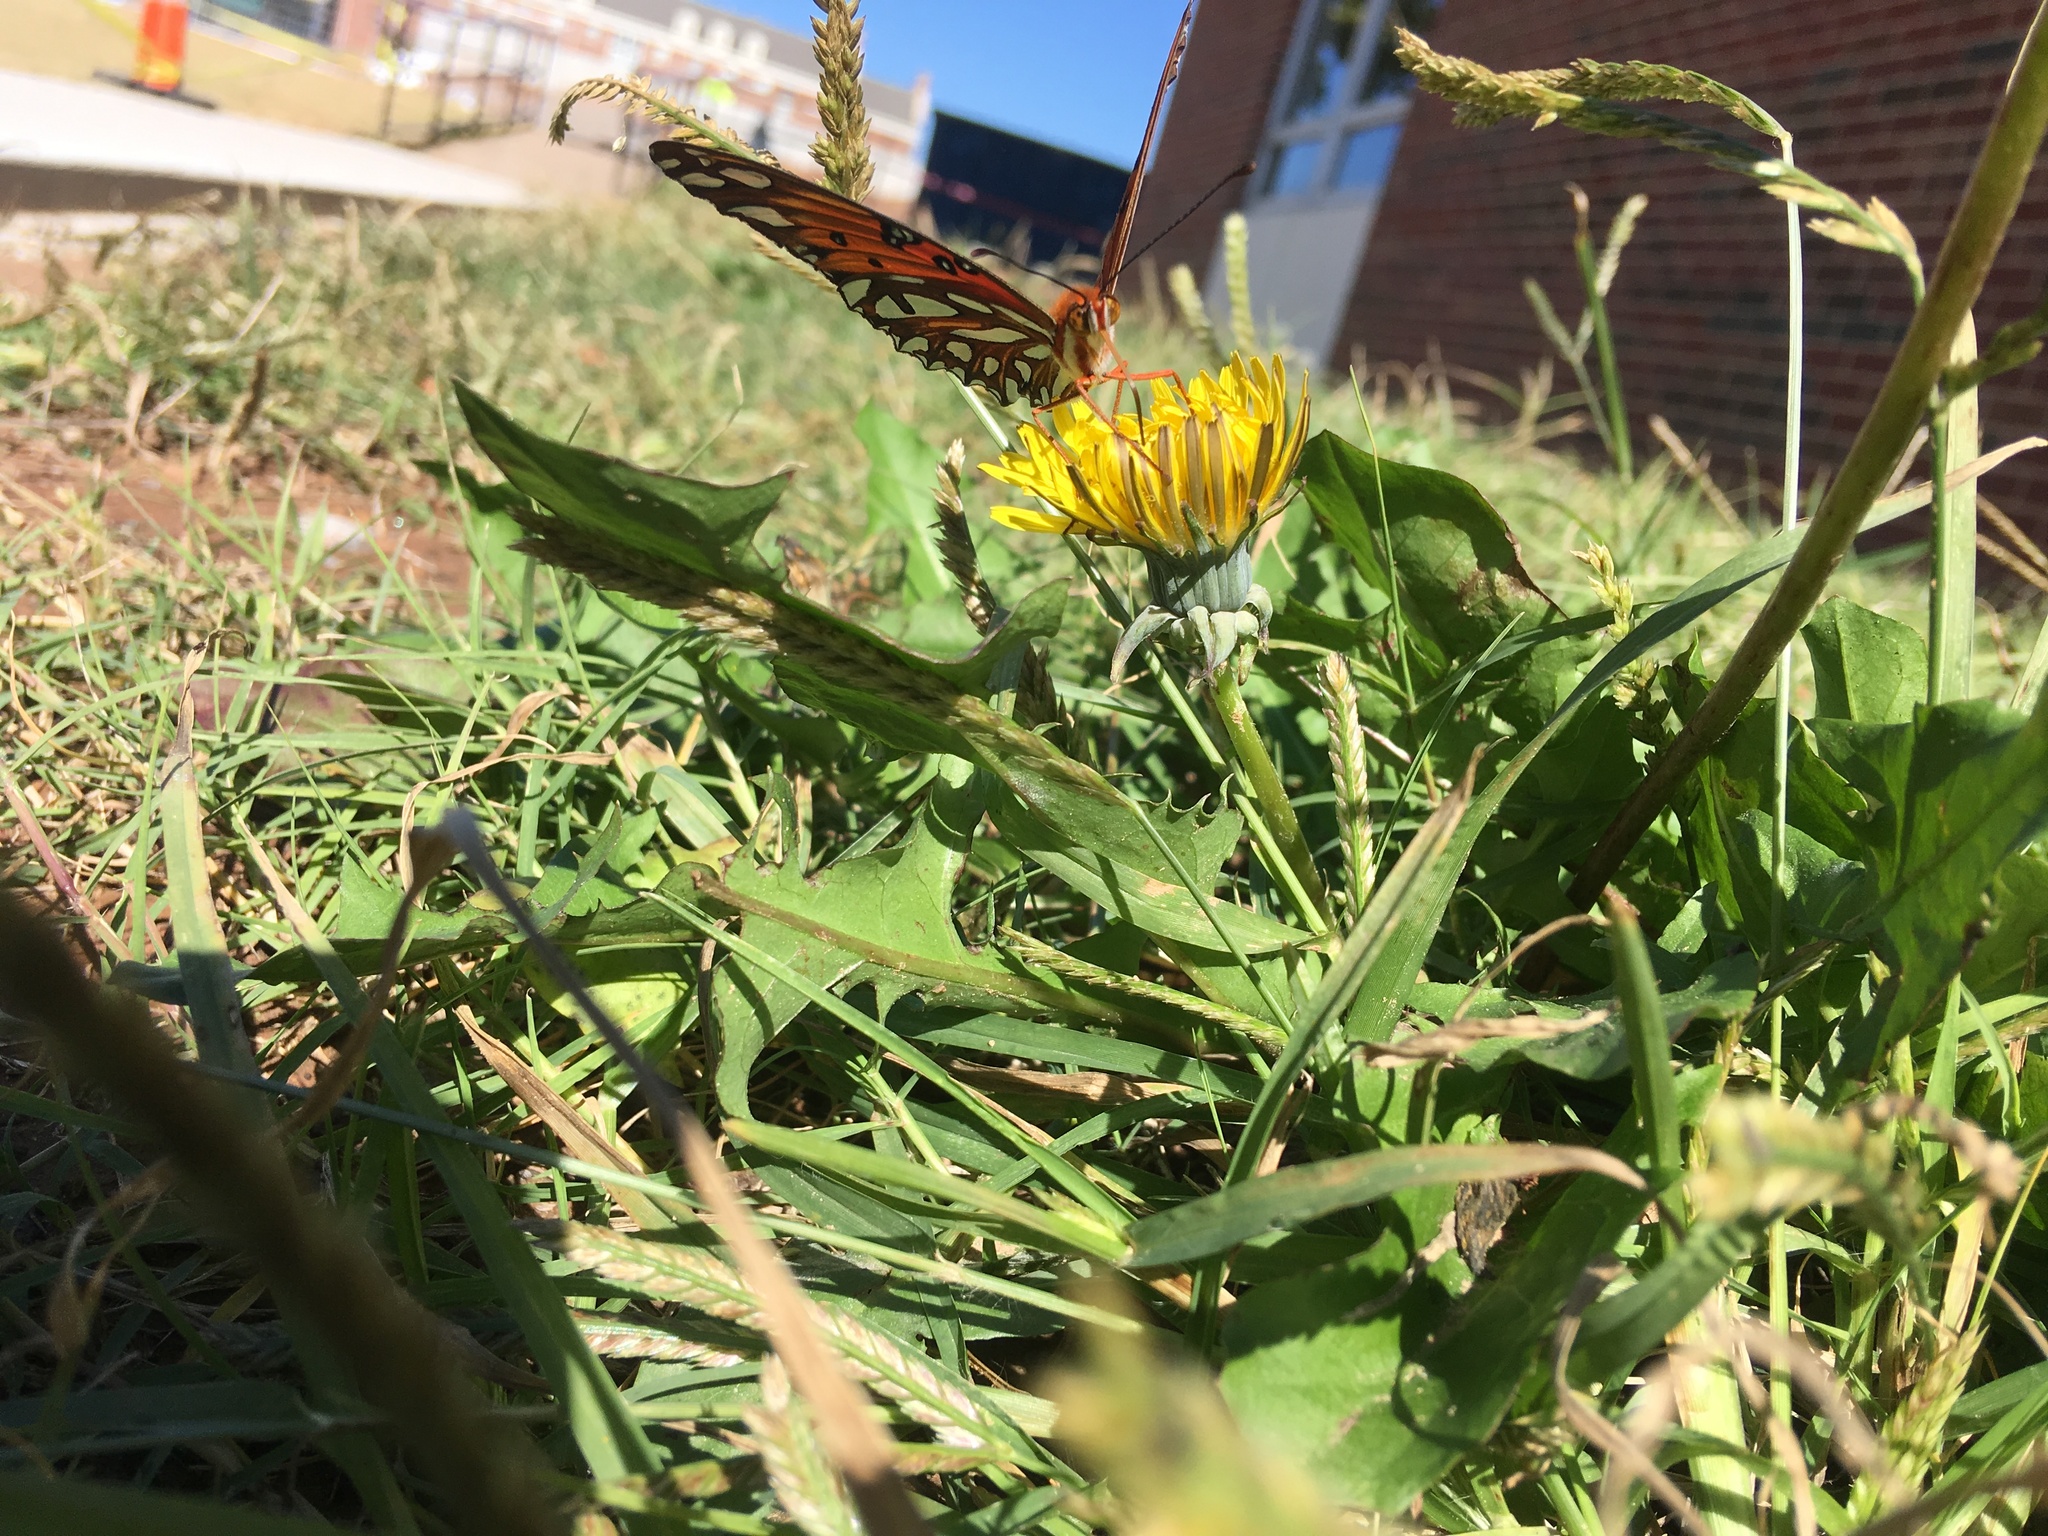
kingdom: Animalia
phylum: Arthropoda
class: Insecta
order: Lepidoptera
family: Nymphalidae
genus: Dione
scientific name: Dione vanillae
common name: Gulf fritillary
